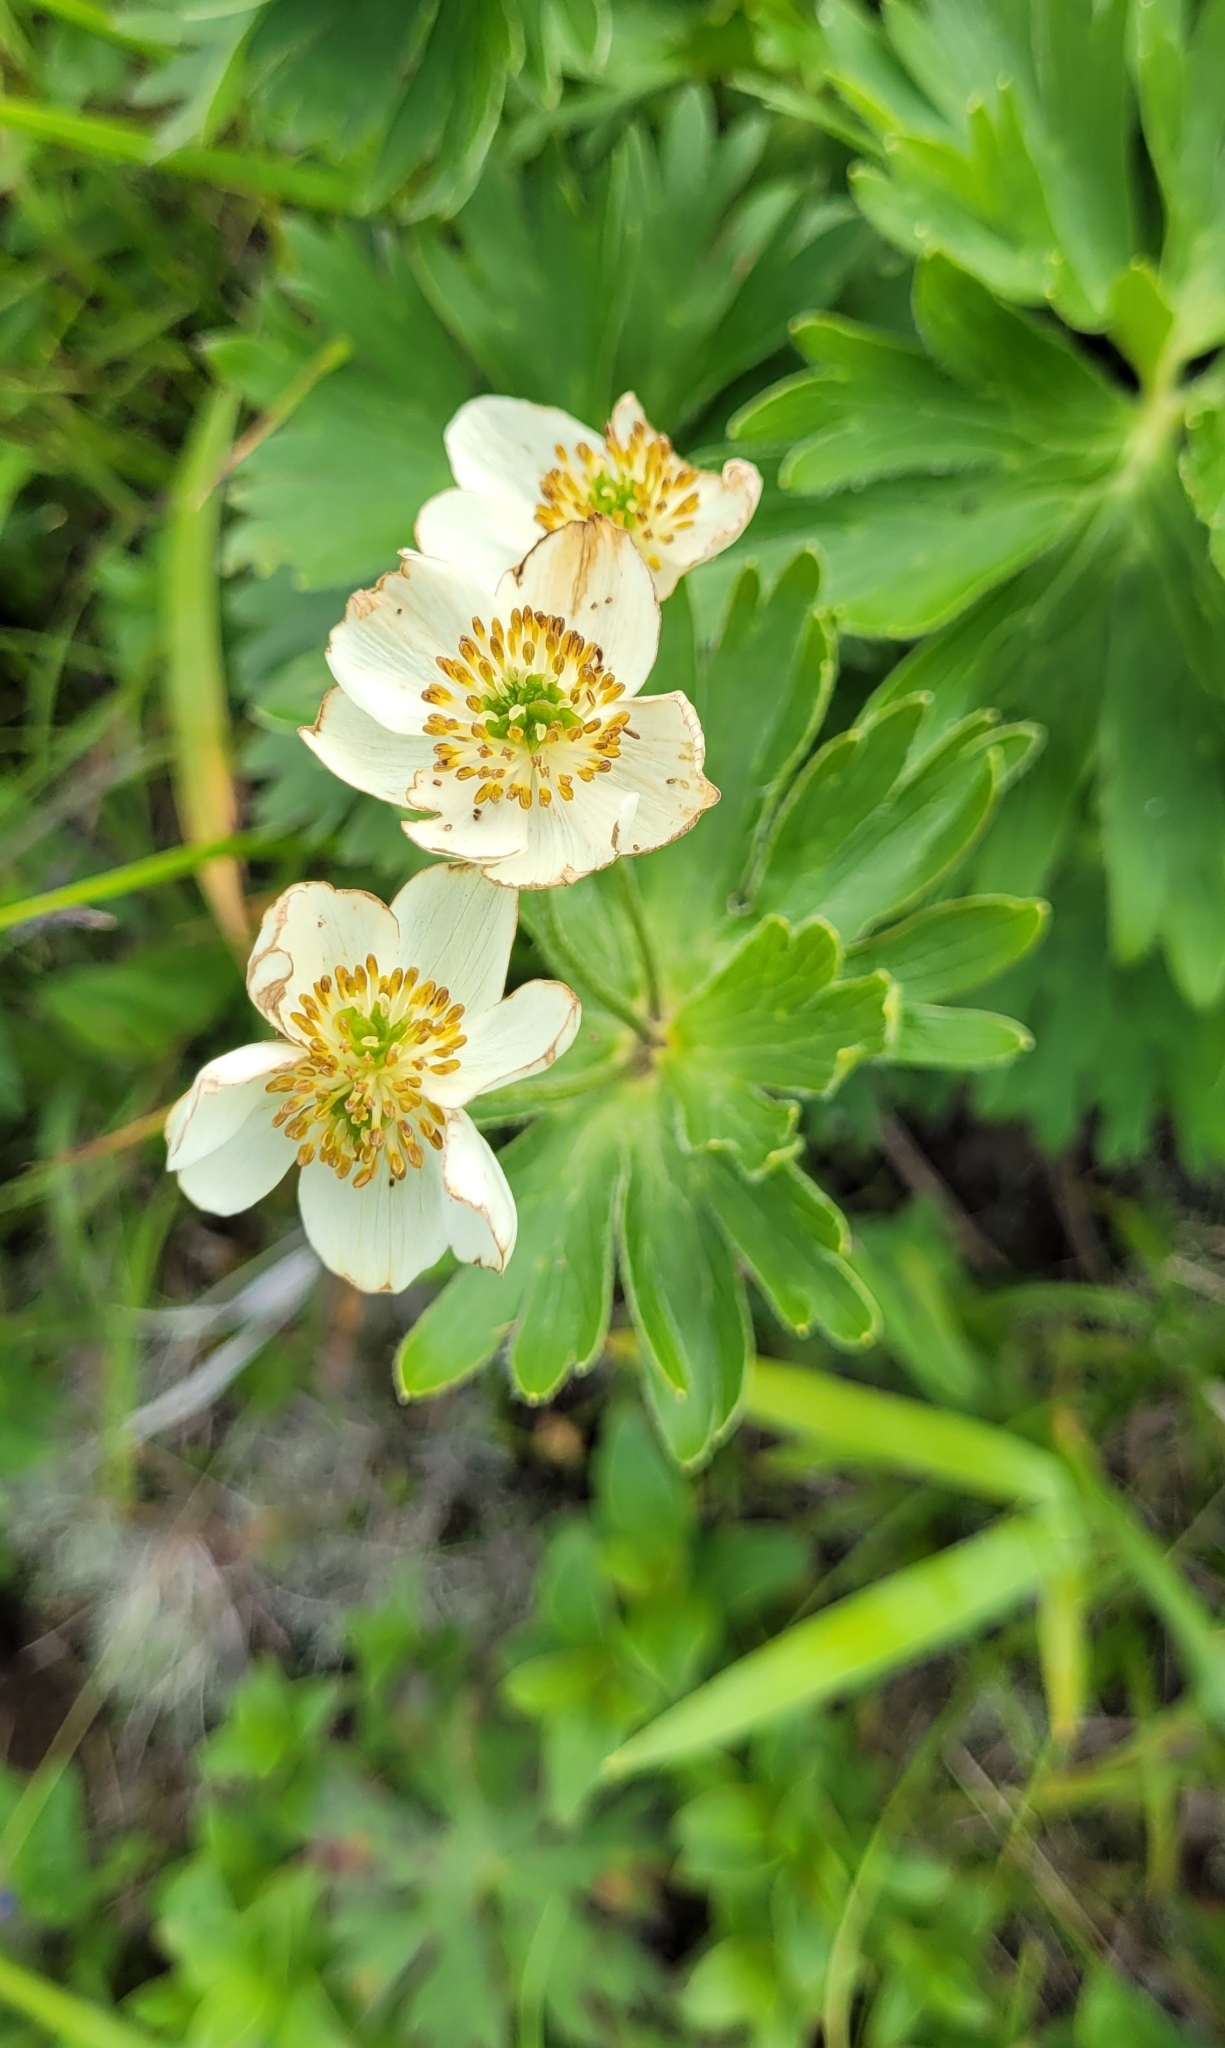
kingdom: Plantae
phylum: Tracheophyta
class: Magnoliopsida
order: Ranunculales
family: Ranunculaceae
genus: Anemonastrum
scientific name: Anemonastrum narcissiflorum
